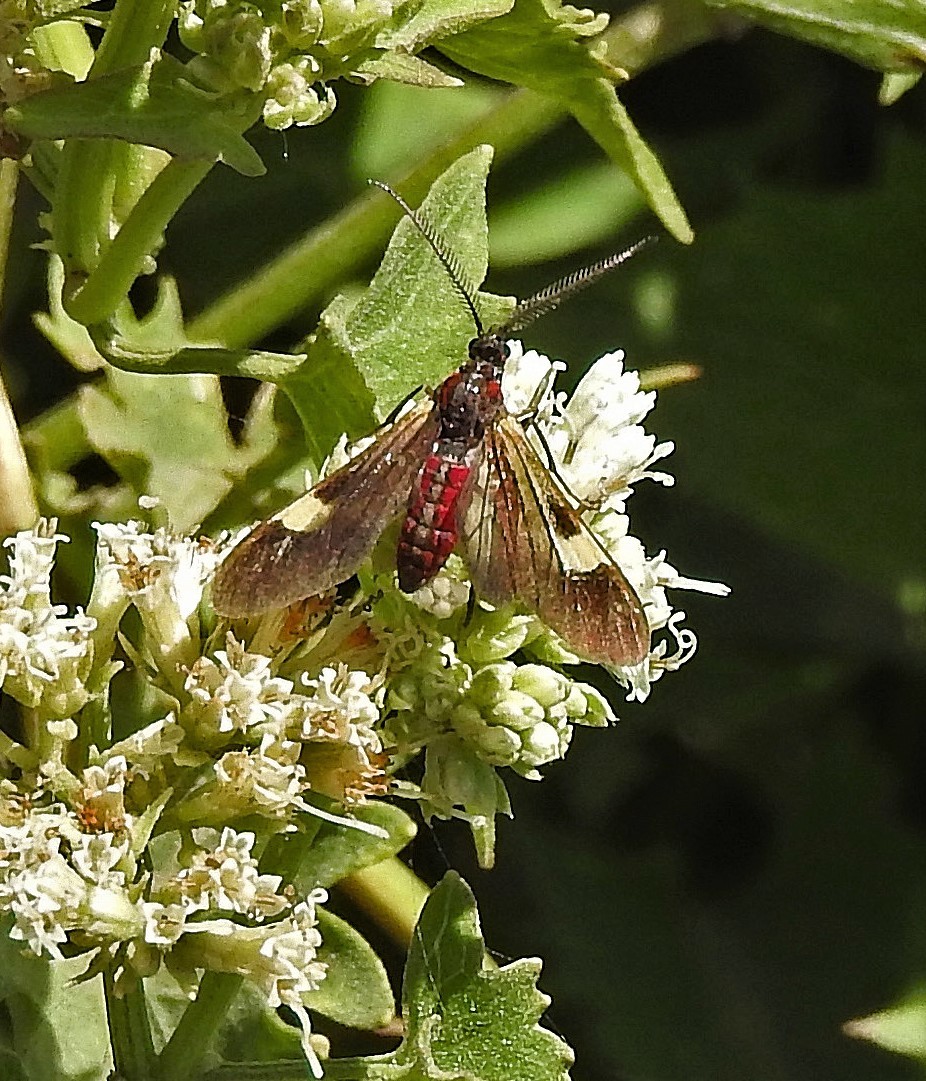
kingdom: Animalia
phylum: Arthropoda
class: Insecta
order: Lepidoptera
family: Erebidae
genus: Rhynchopyga
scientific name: Rhynchopyga meisteri
